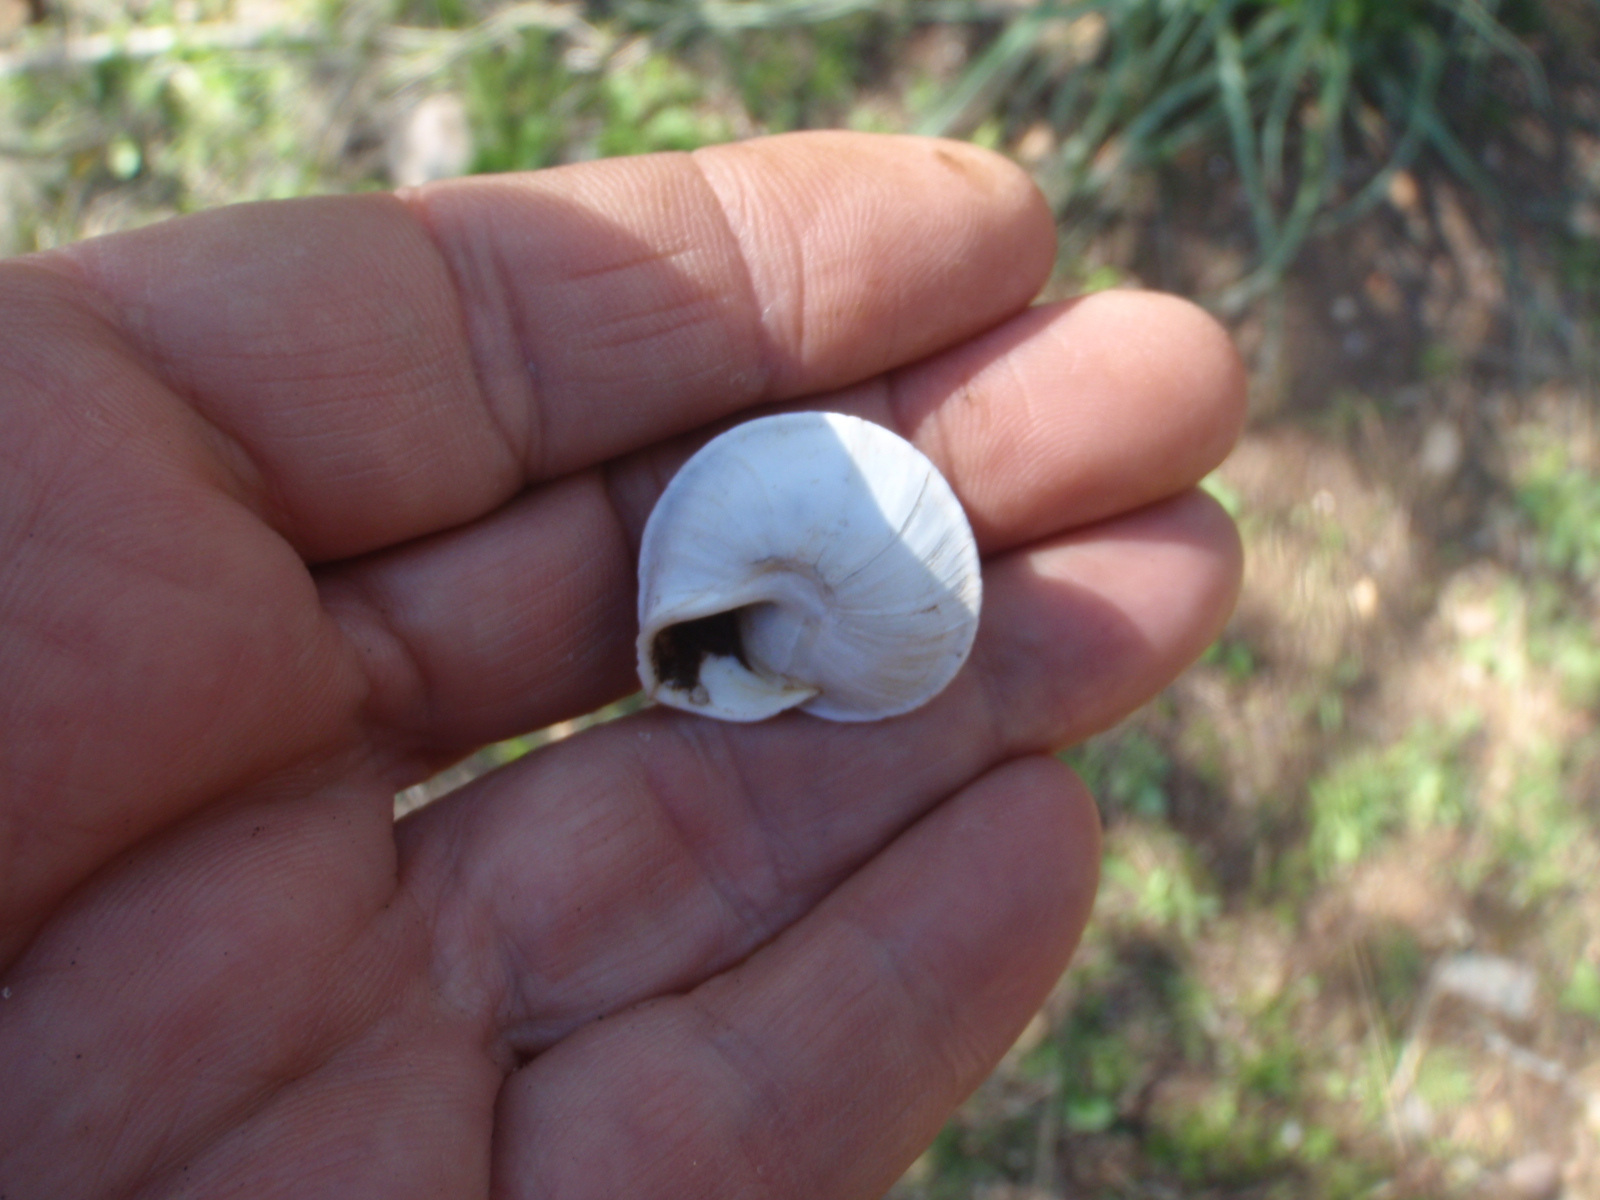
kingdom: Animalia
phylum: Mollusca
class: Gastropoda
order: Stylommatophora
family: Sphincterochilidae
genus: Sphincterochila
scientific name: Sphincterochila otthiana
